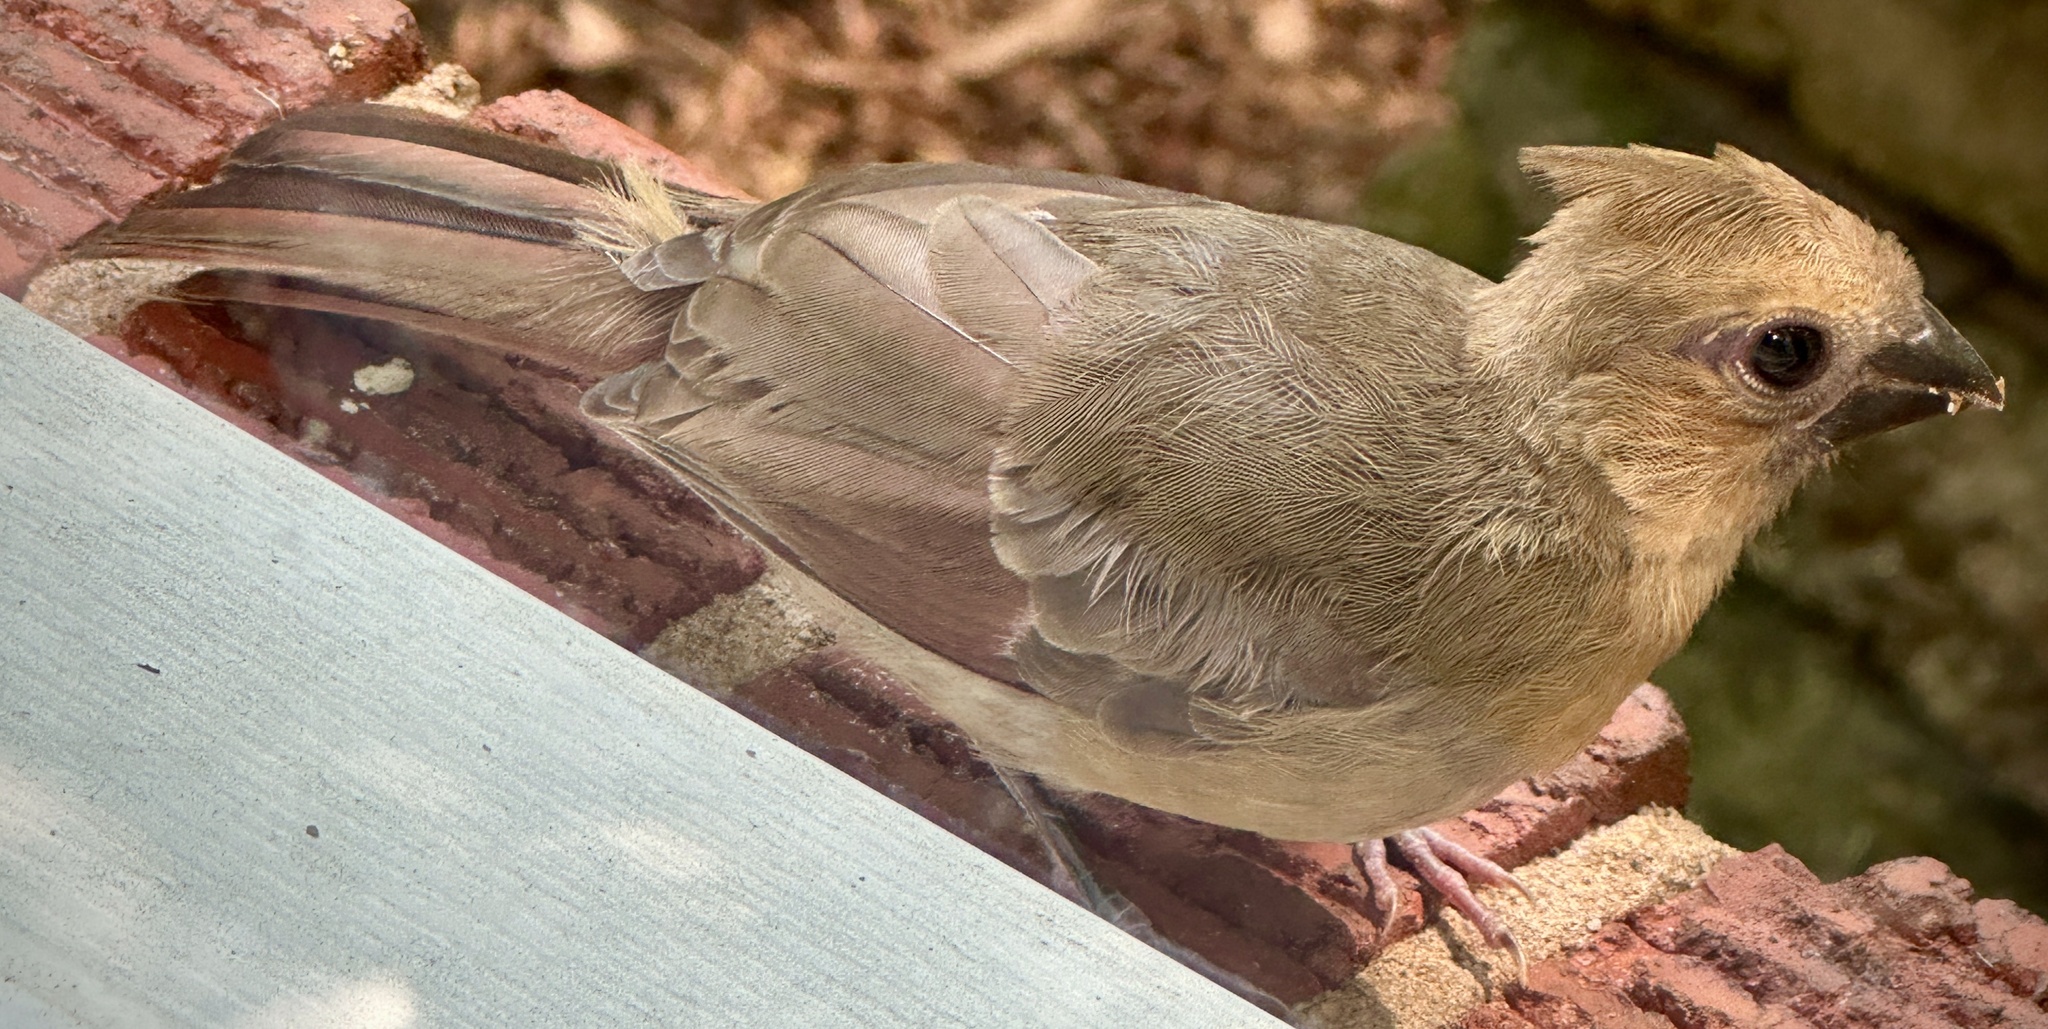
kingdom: Animalia
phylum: Chordata
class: Aves
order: Passeriformes
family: Cardinalidae
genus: Cardinalis
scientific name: Cardinalis cardinalis
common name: Northern cardinal
